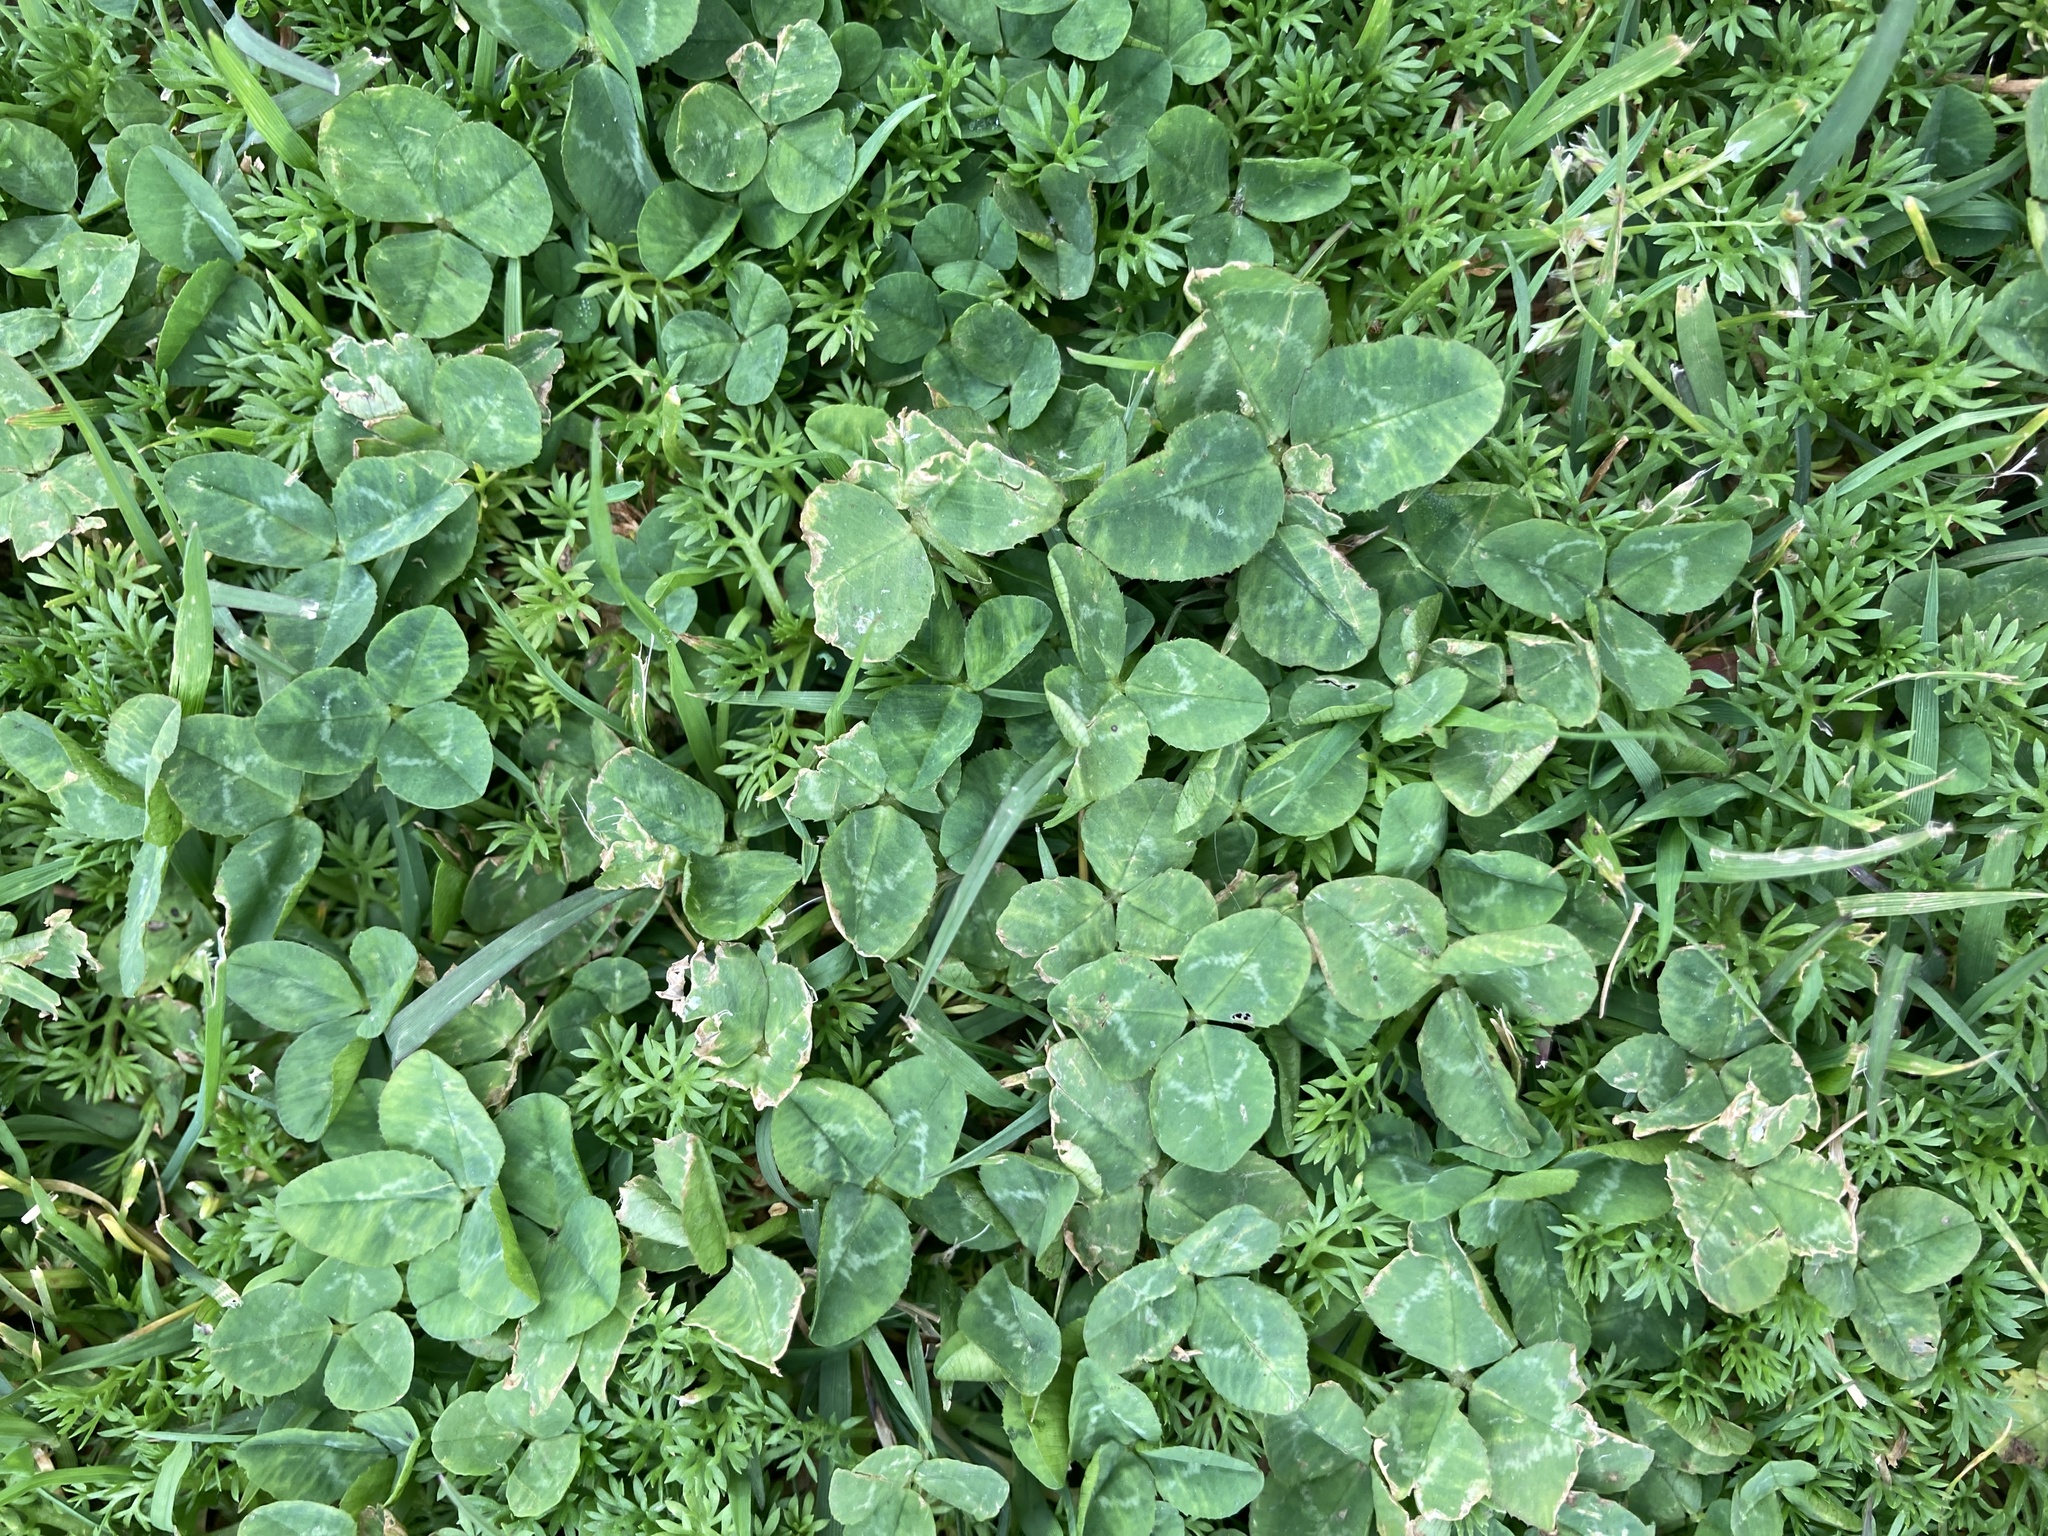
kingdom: Plantae
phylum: Tracheophyta
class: Magnoliopsida
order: Fabales
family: Fabaceae
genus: Trifolium
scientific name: Trifolium repens
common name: White clover
